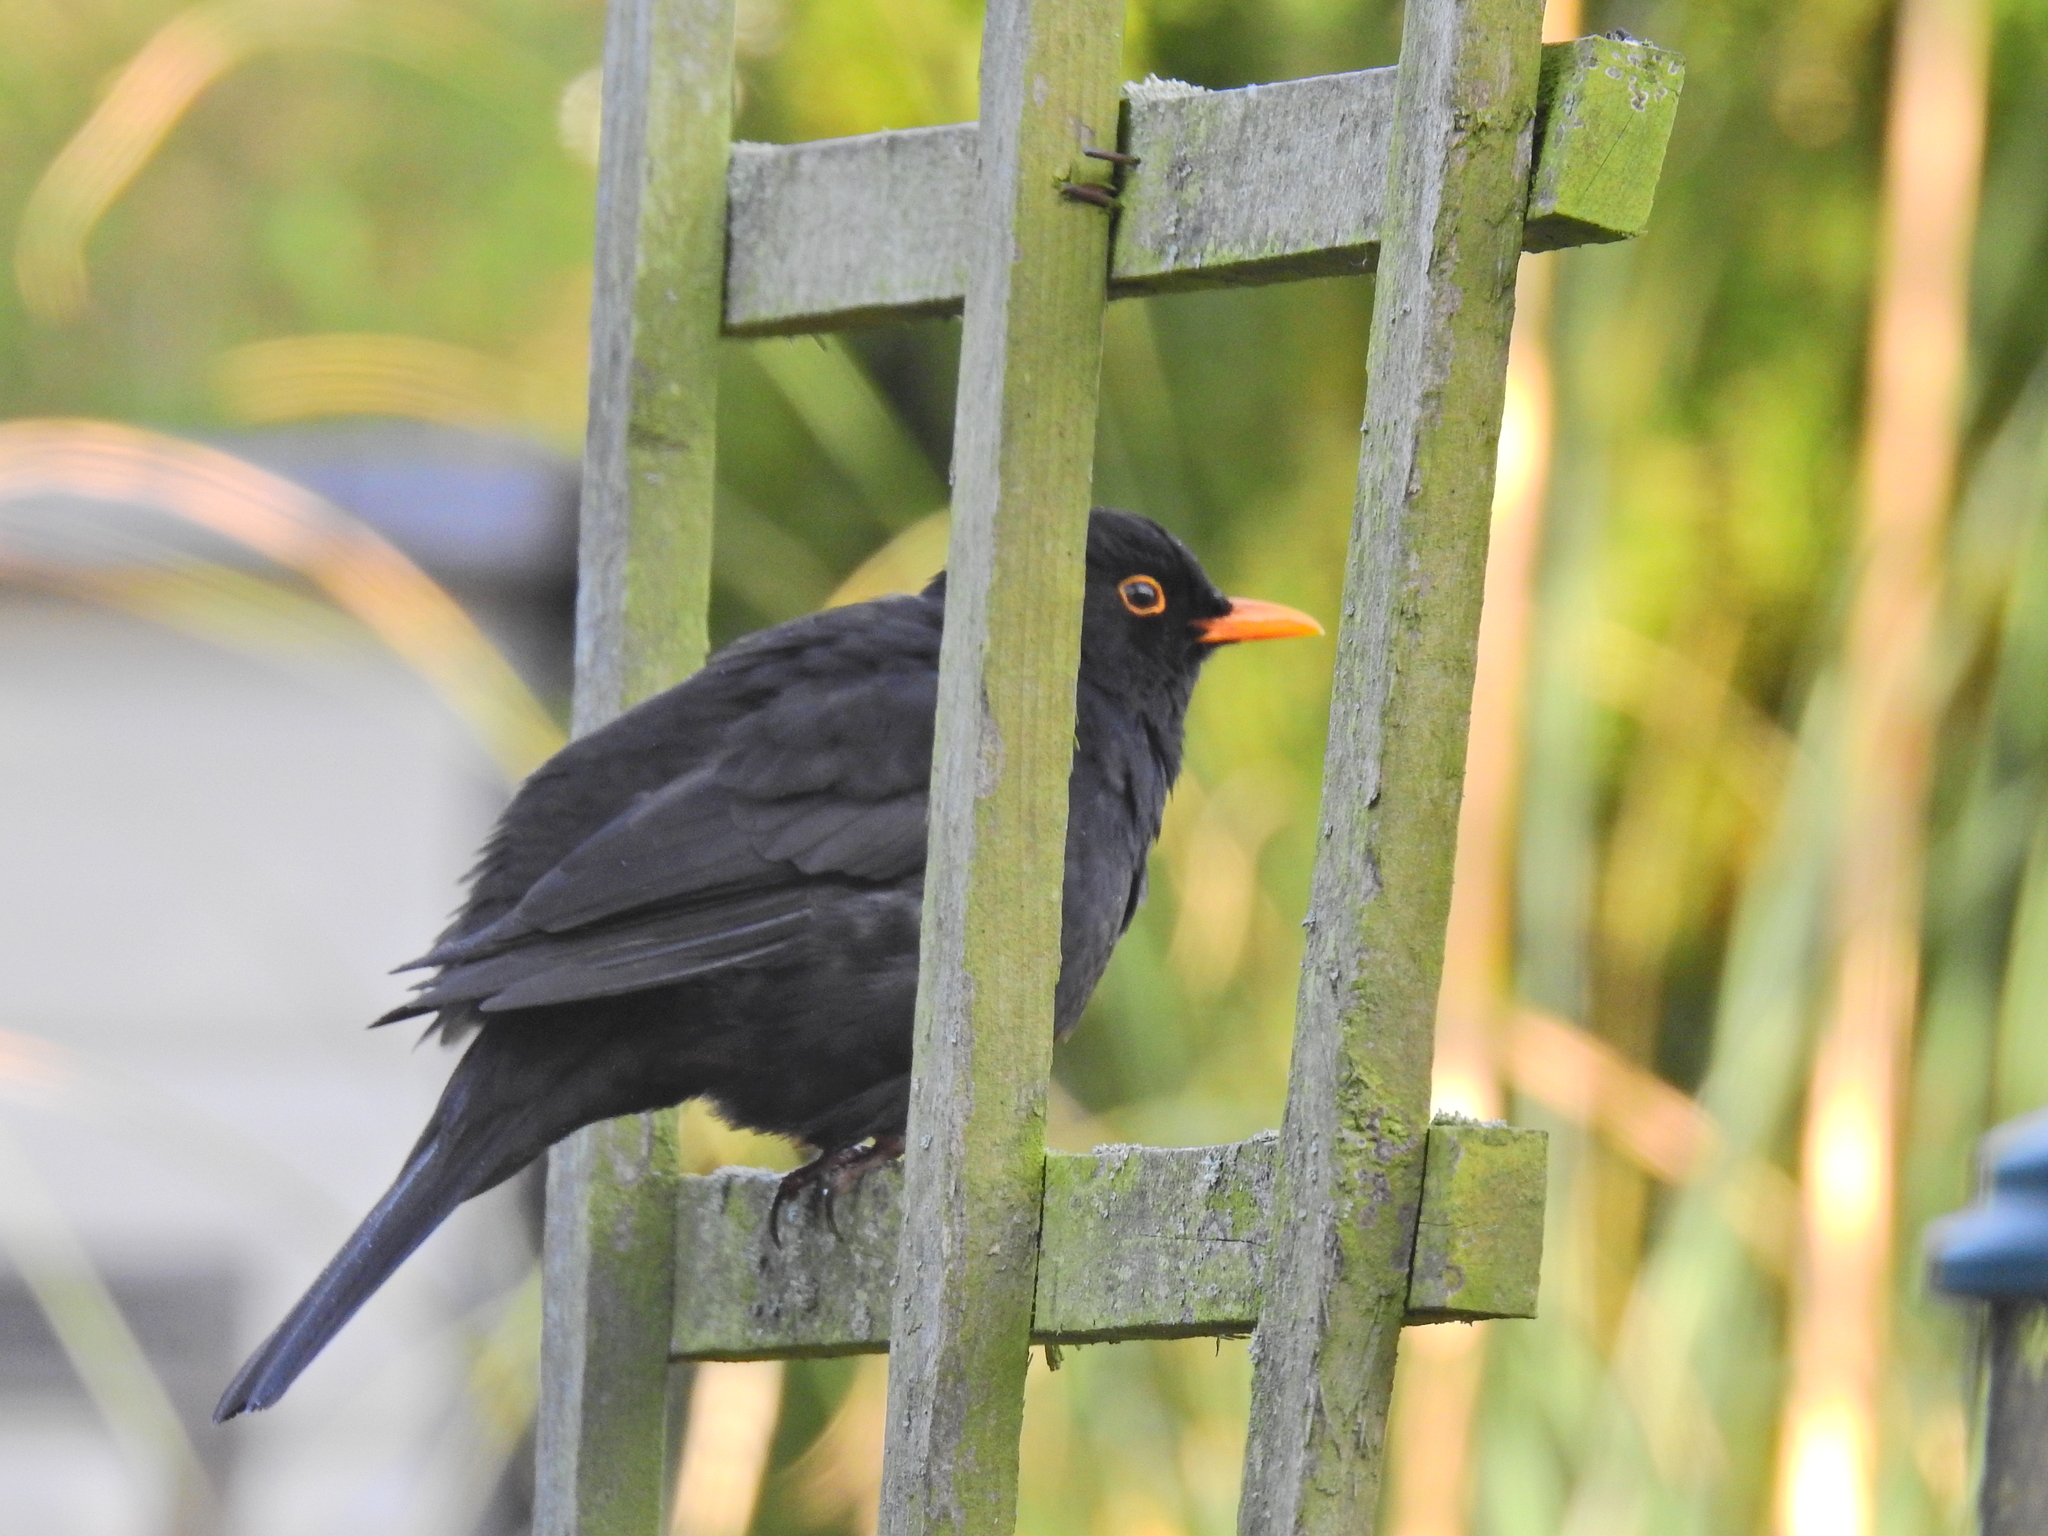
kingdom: Animalia
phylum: Chordata
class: Aves
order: Passeriformes
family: Turdidae
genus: Turdus
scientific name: Turdus merula
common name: Common blackbird
